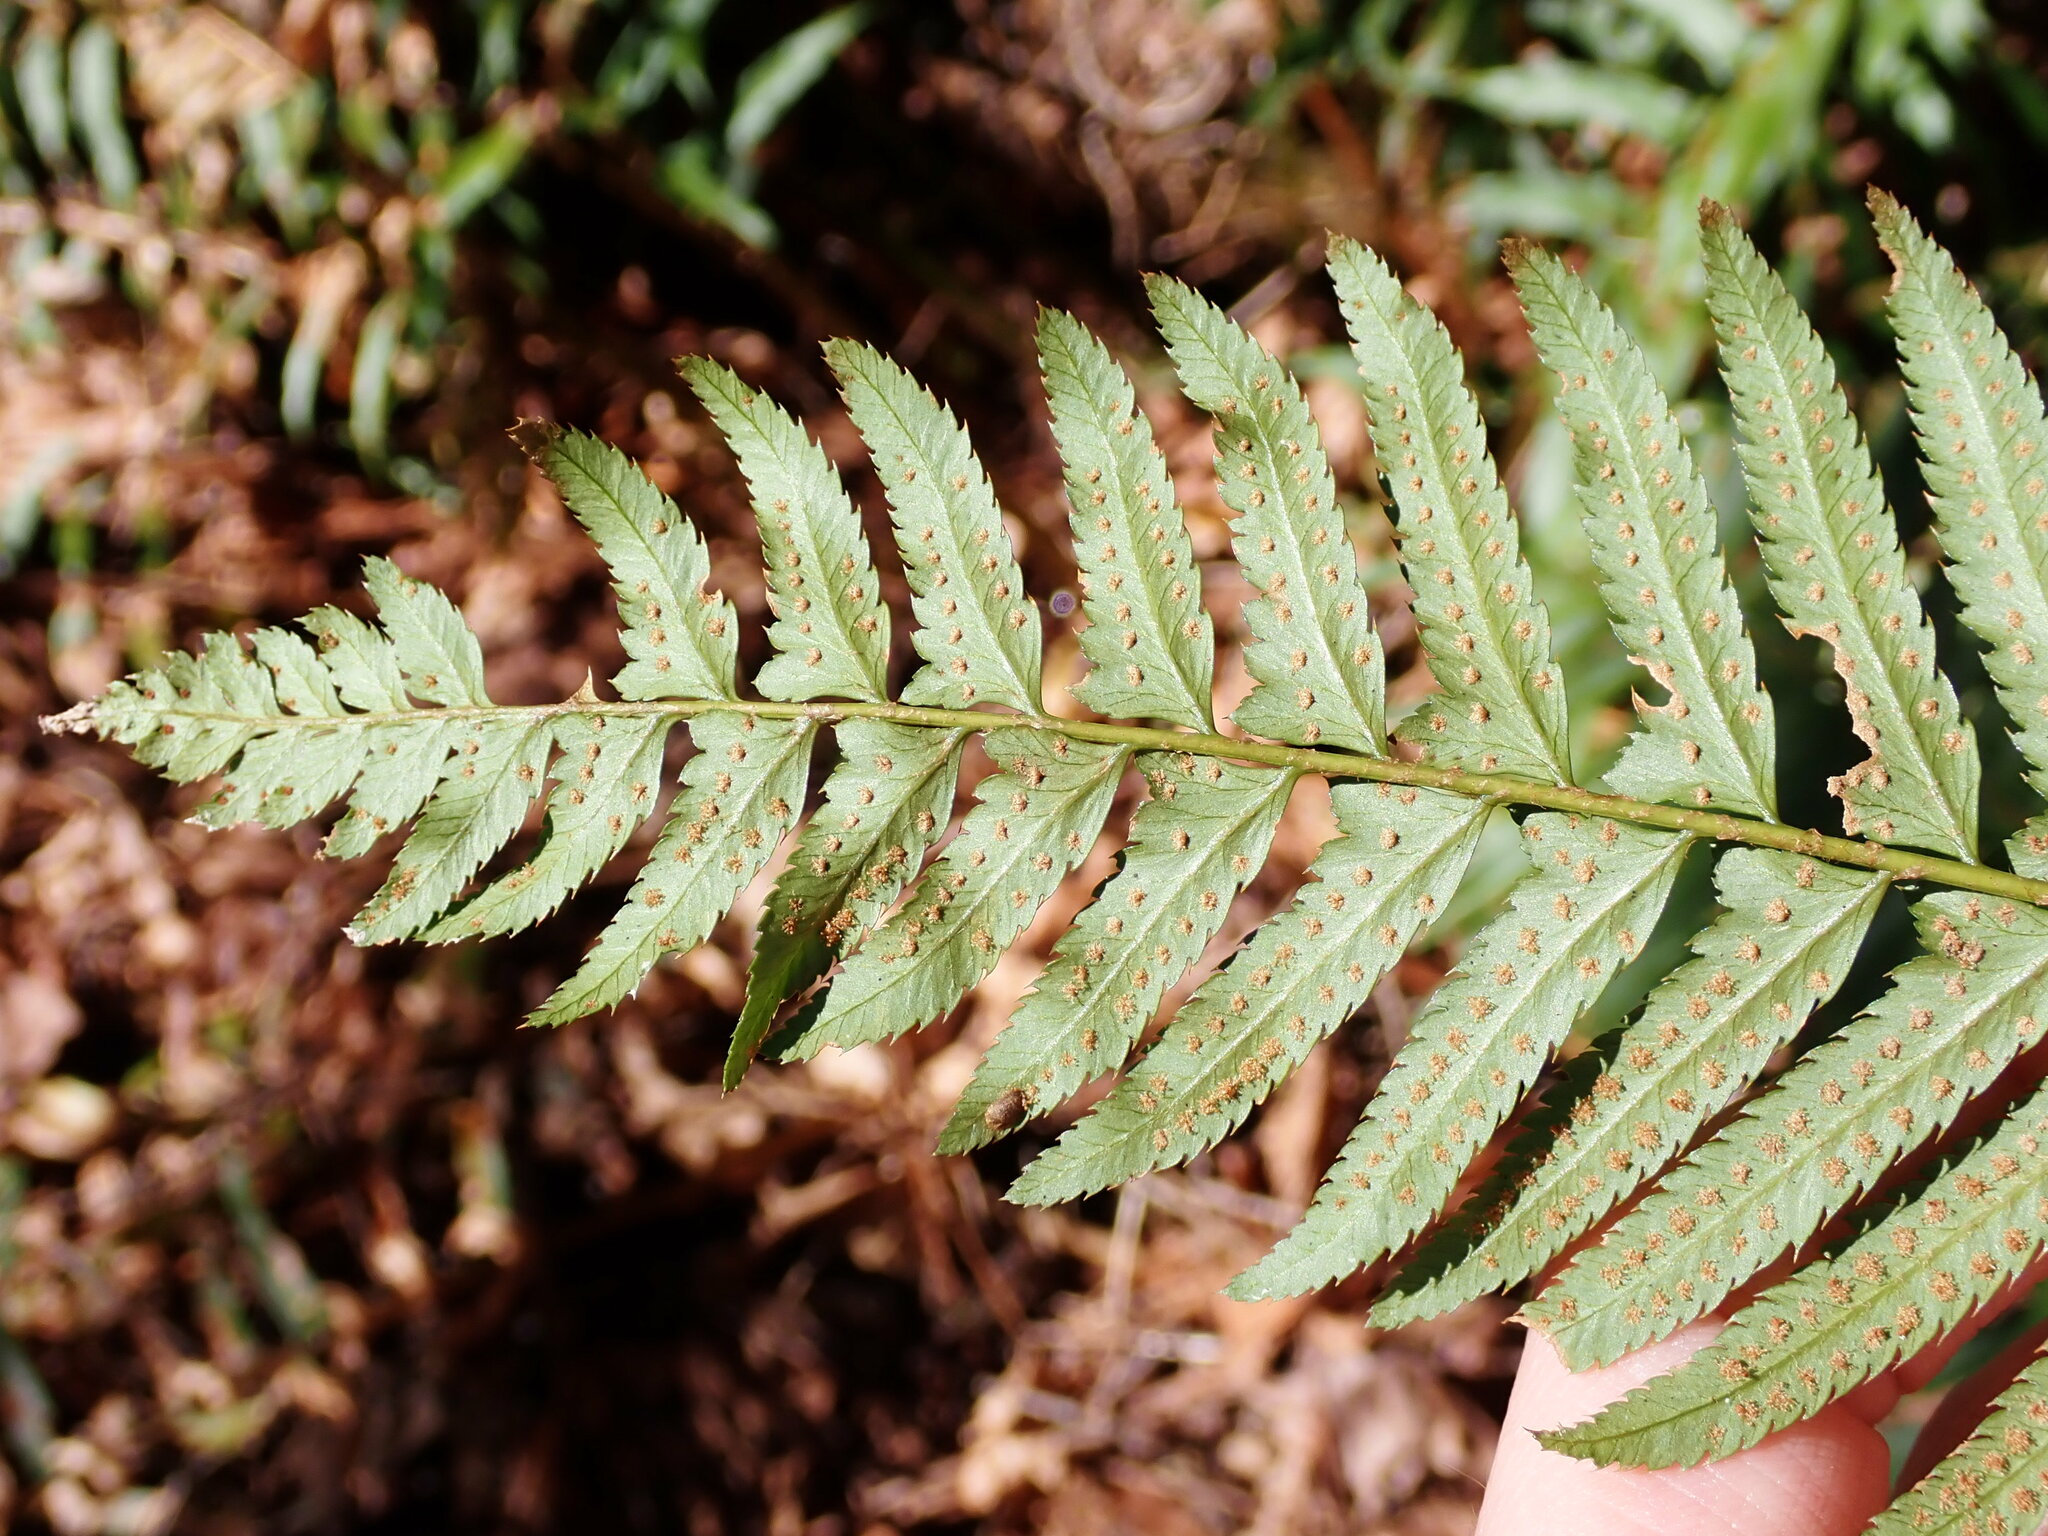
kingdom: Plantae
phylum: Tracheophyta
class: Polypodiopsida
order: Polypodiales
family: Dryopteridaceae
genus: Polystichum
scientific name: Polystichum munitum
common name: Western sword-fern
